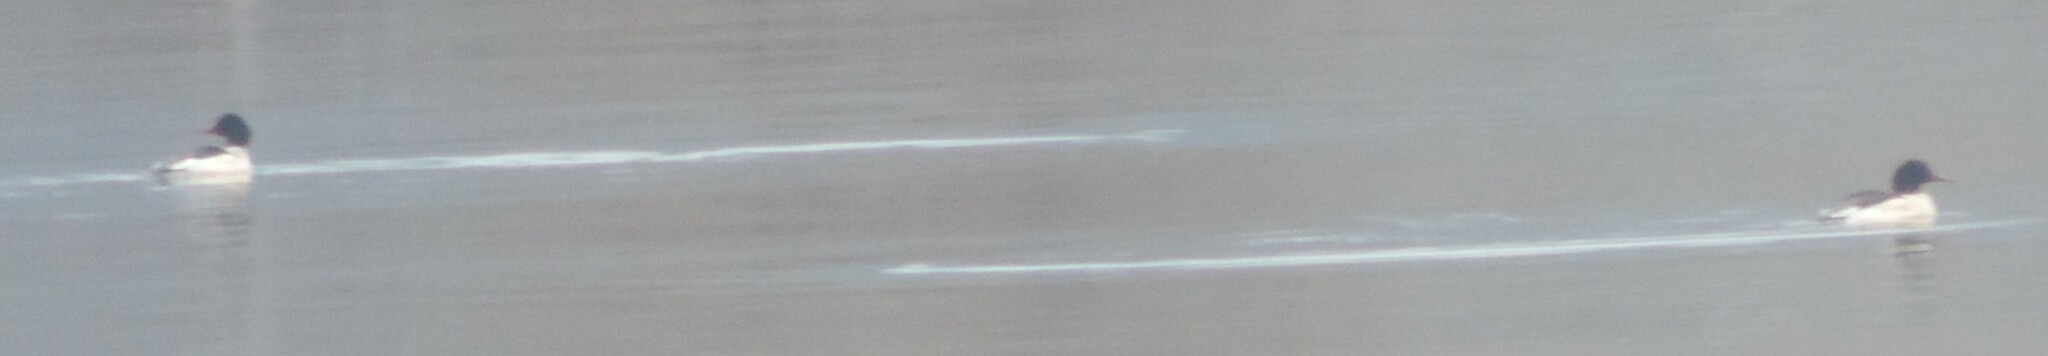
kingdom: Animalia
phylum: Chordata
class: Aves
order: Anseriformes
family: Anatidae
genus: Mergus
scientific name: Mergus merganser
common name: Common merganser
